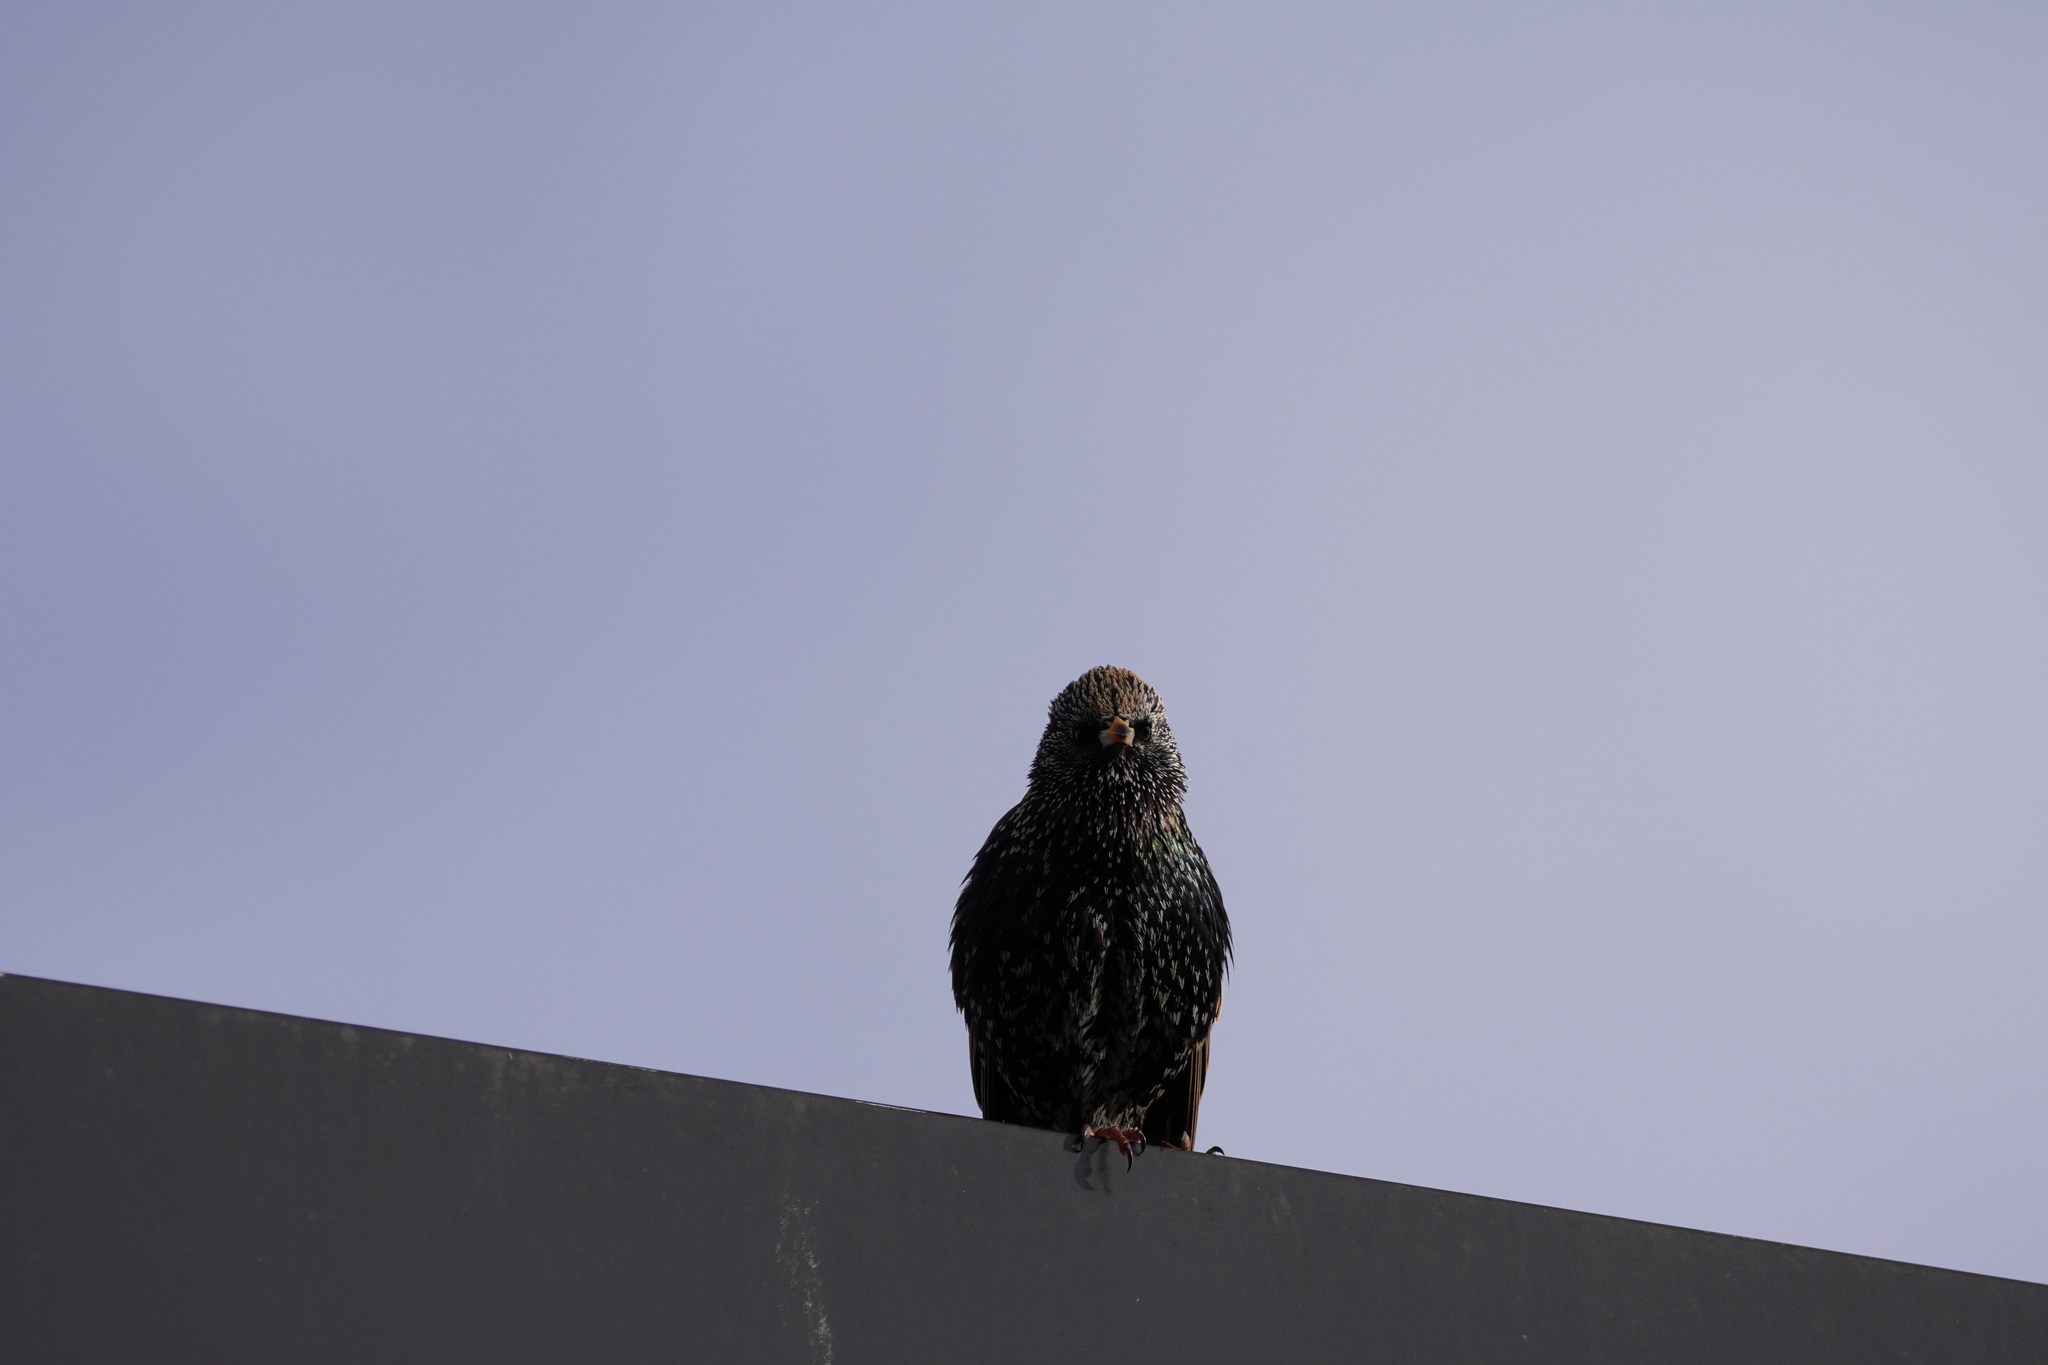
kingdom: Animalia
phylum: Chordata
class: Aves
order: Passeriformes
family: Sturnidae
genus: Sturnus
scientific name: Sturnus vulgaris
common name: Common starling
